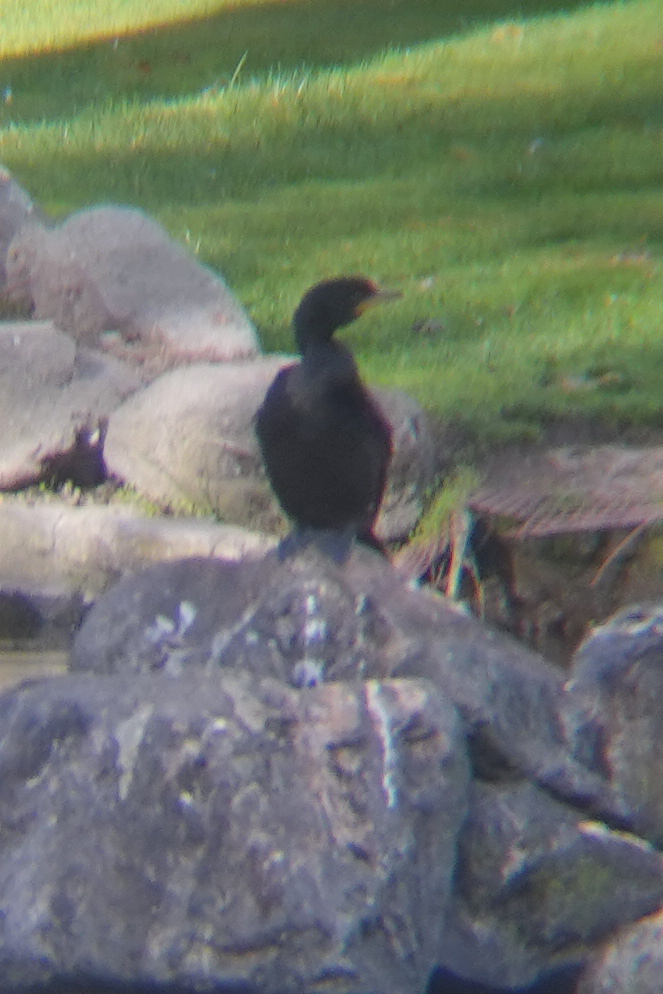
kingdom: Animalia
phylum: Chordata
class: Aves
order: Suliformes
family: Phalacrocoracidae
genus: Microcarbo
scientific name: Microcarbo melanoleucos
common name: Little pied cormorant
